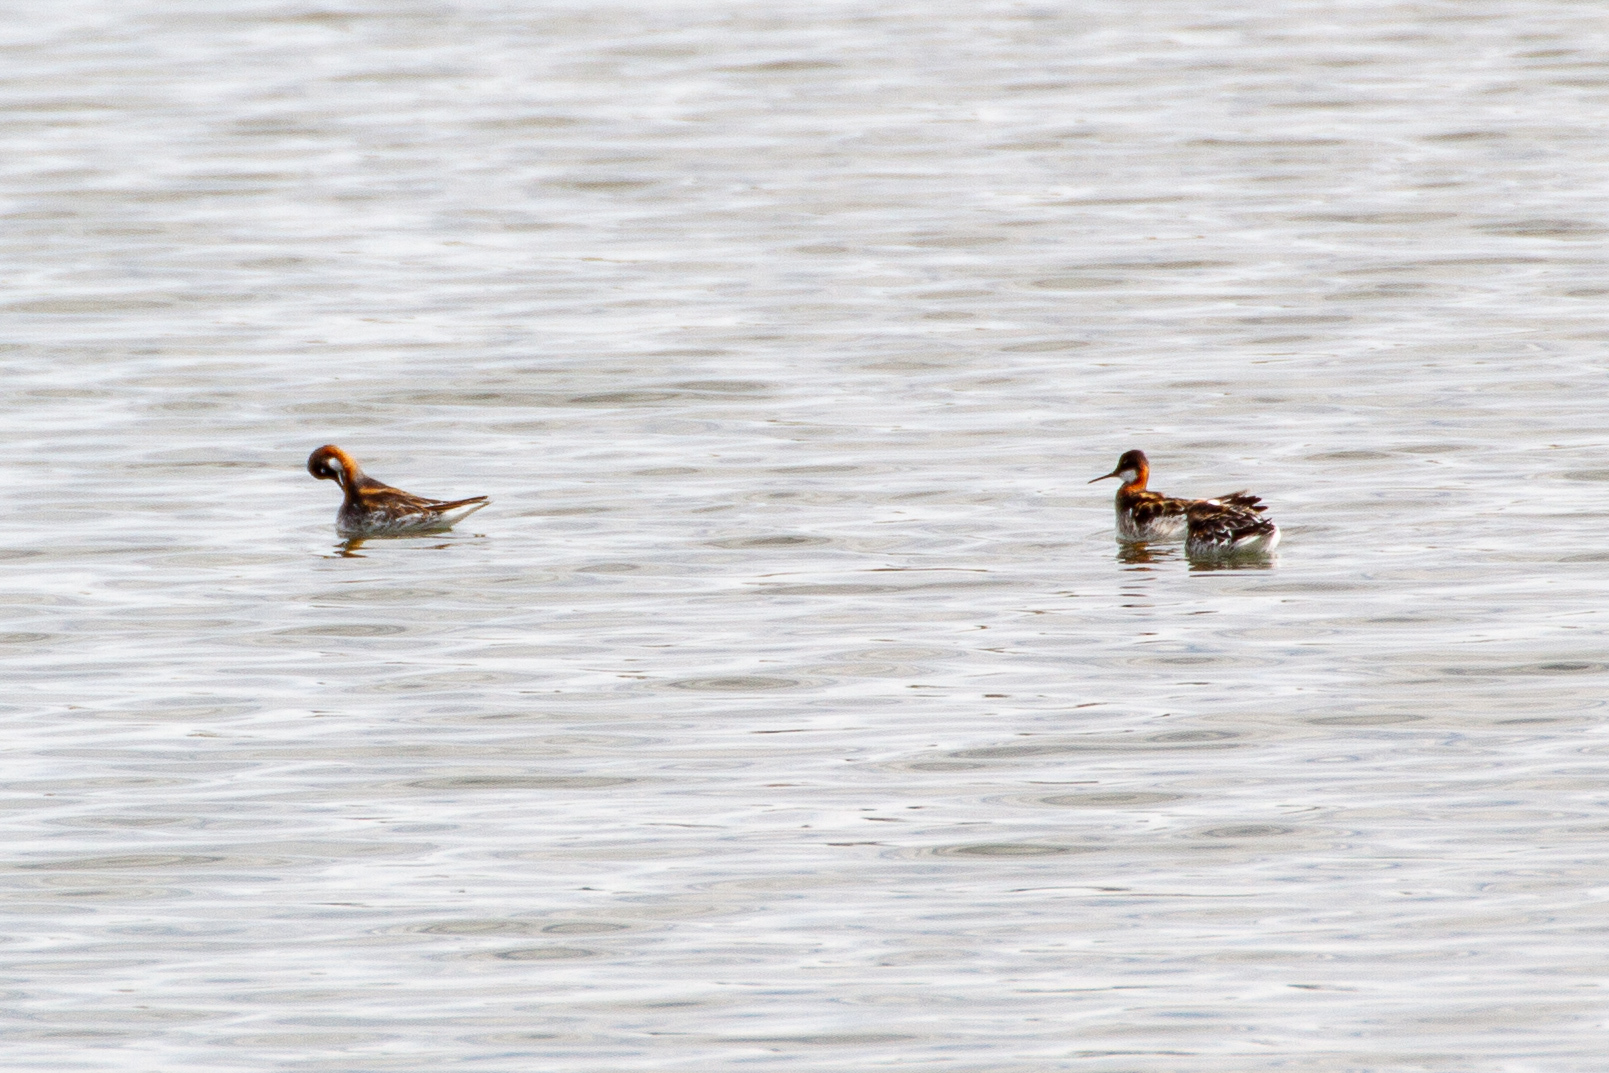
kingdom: Animalia
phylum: Chordata
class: Aves
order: Charadriiformes
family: Scolopacidae
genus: Phalaropus
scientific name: Phalaropus lobatus
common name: Red-necked phalarope
